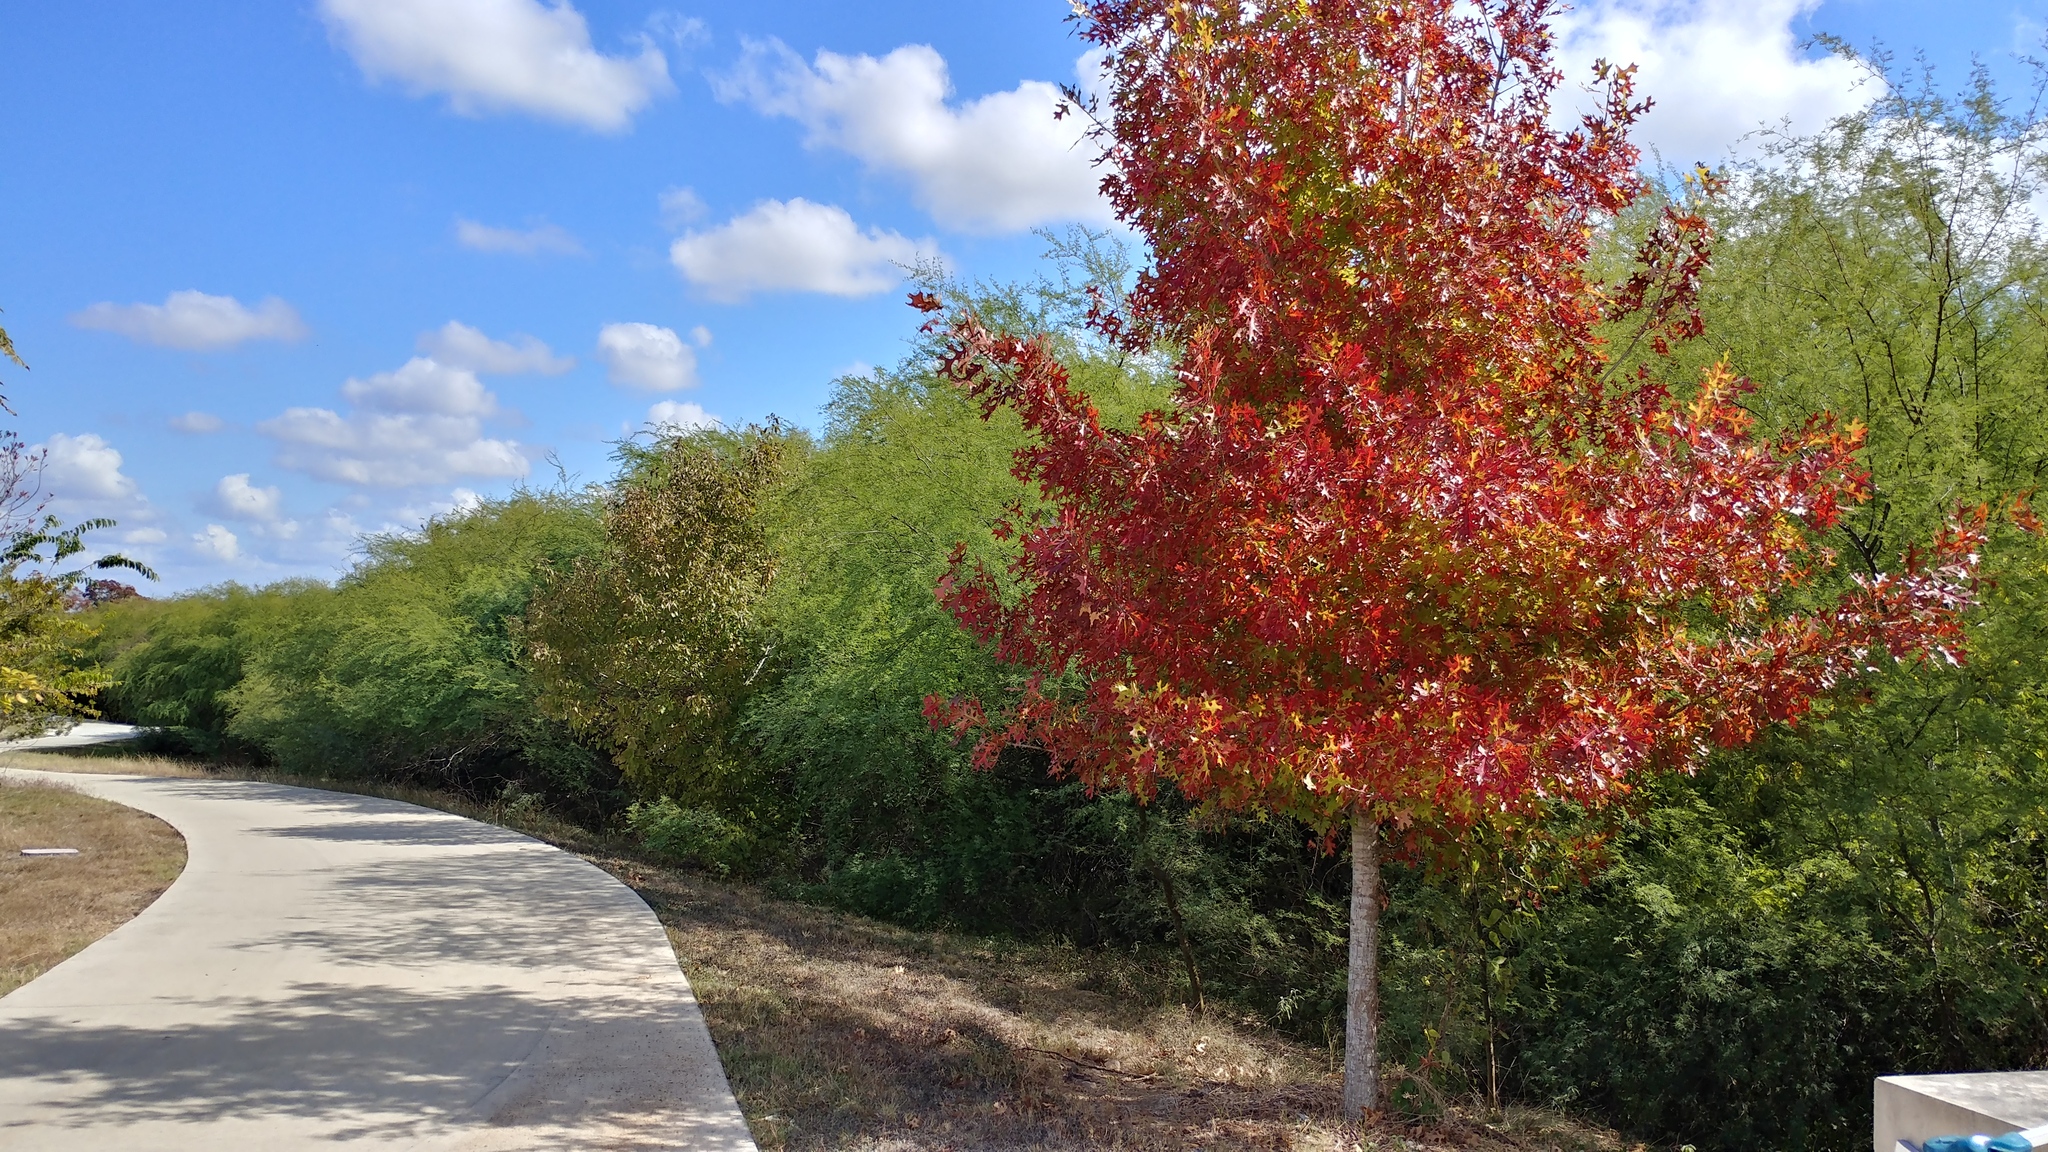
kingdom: Plantae
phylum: Tracheophyta
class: Magnoliopsida
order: Fagales
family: Fagaceae
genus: Quercus
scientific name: Quercus buckleyi
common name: Buckley oak
